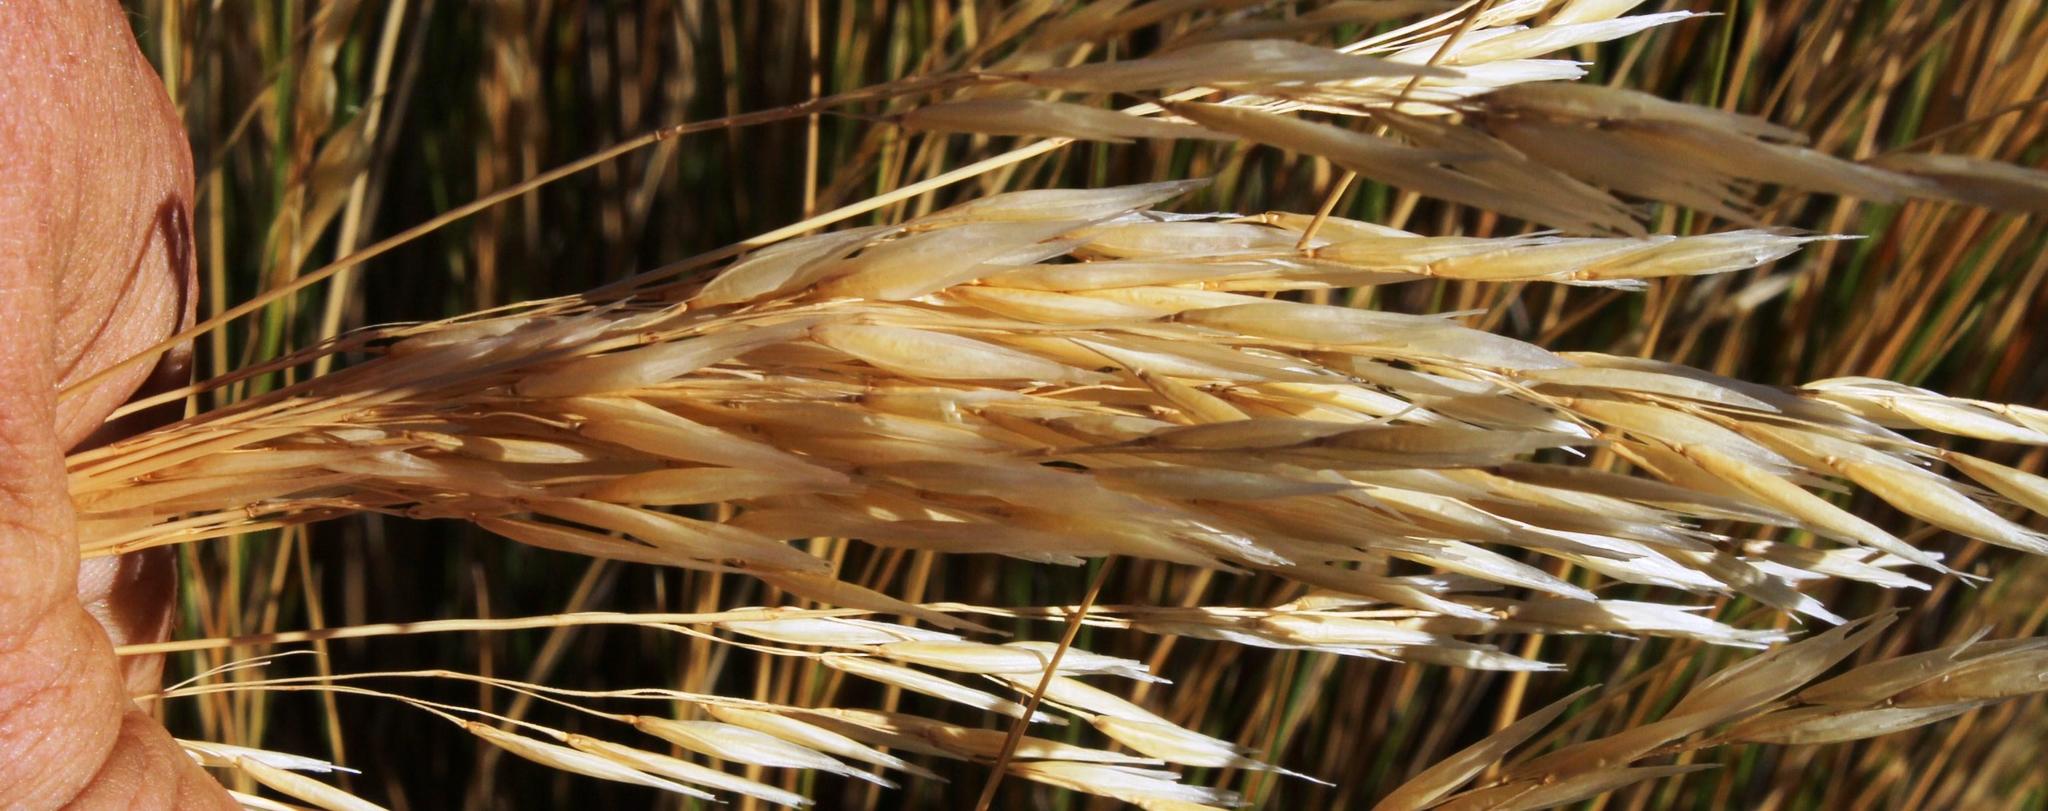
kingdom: Plantae
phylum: Tracheophyta
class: Liliopsida
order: Poales
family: Poaceae
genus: Tenaxia
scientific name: Tenaxia stricta
